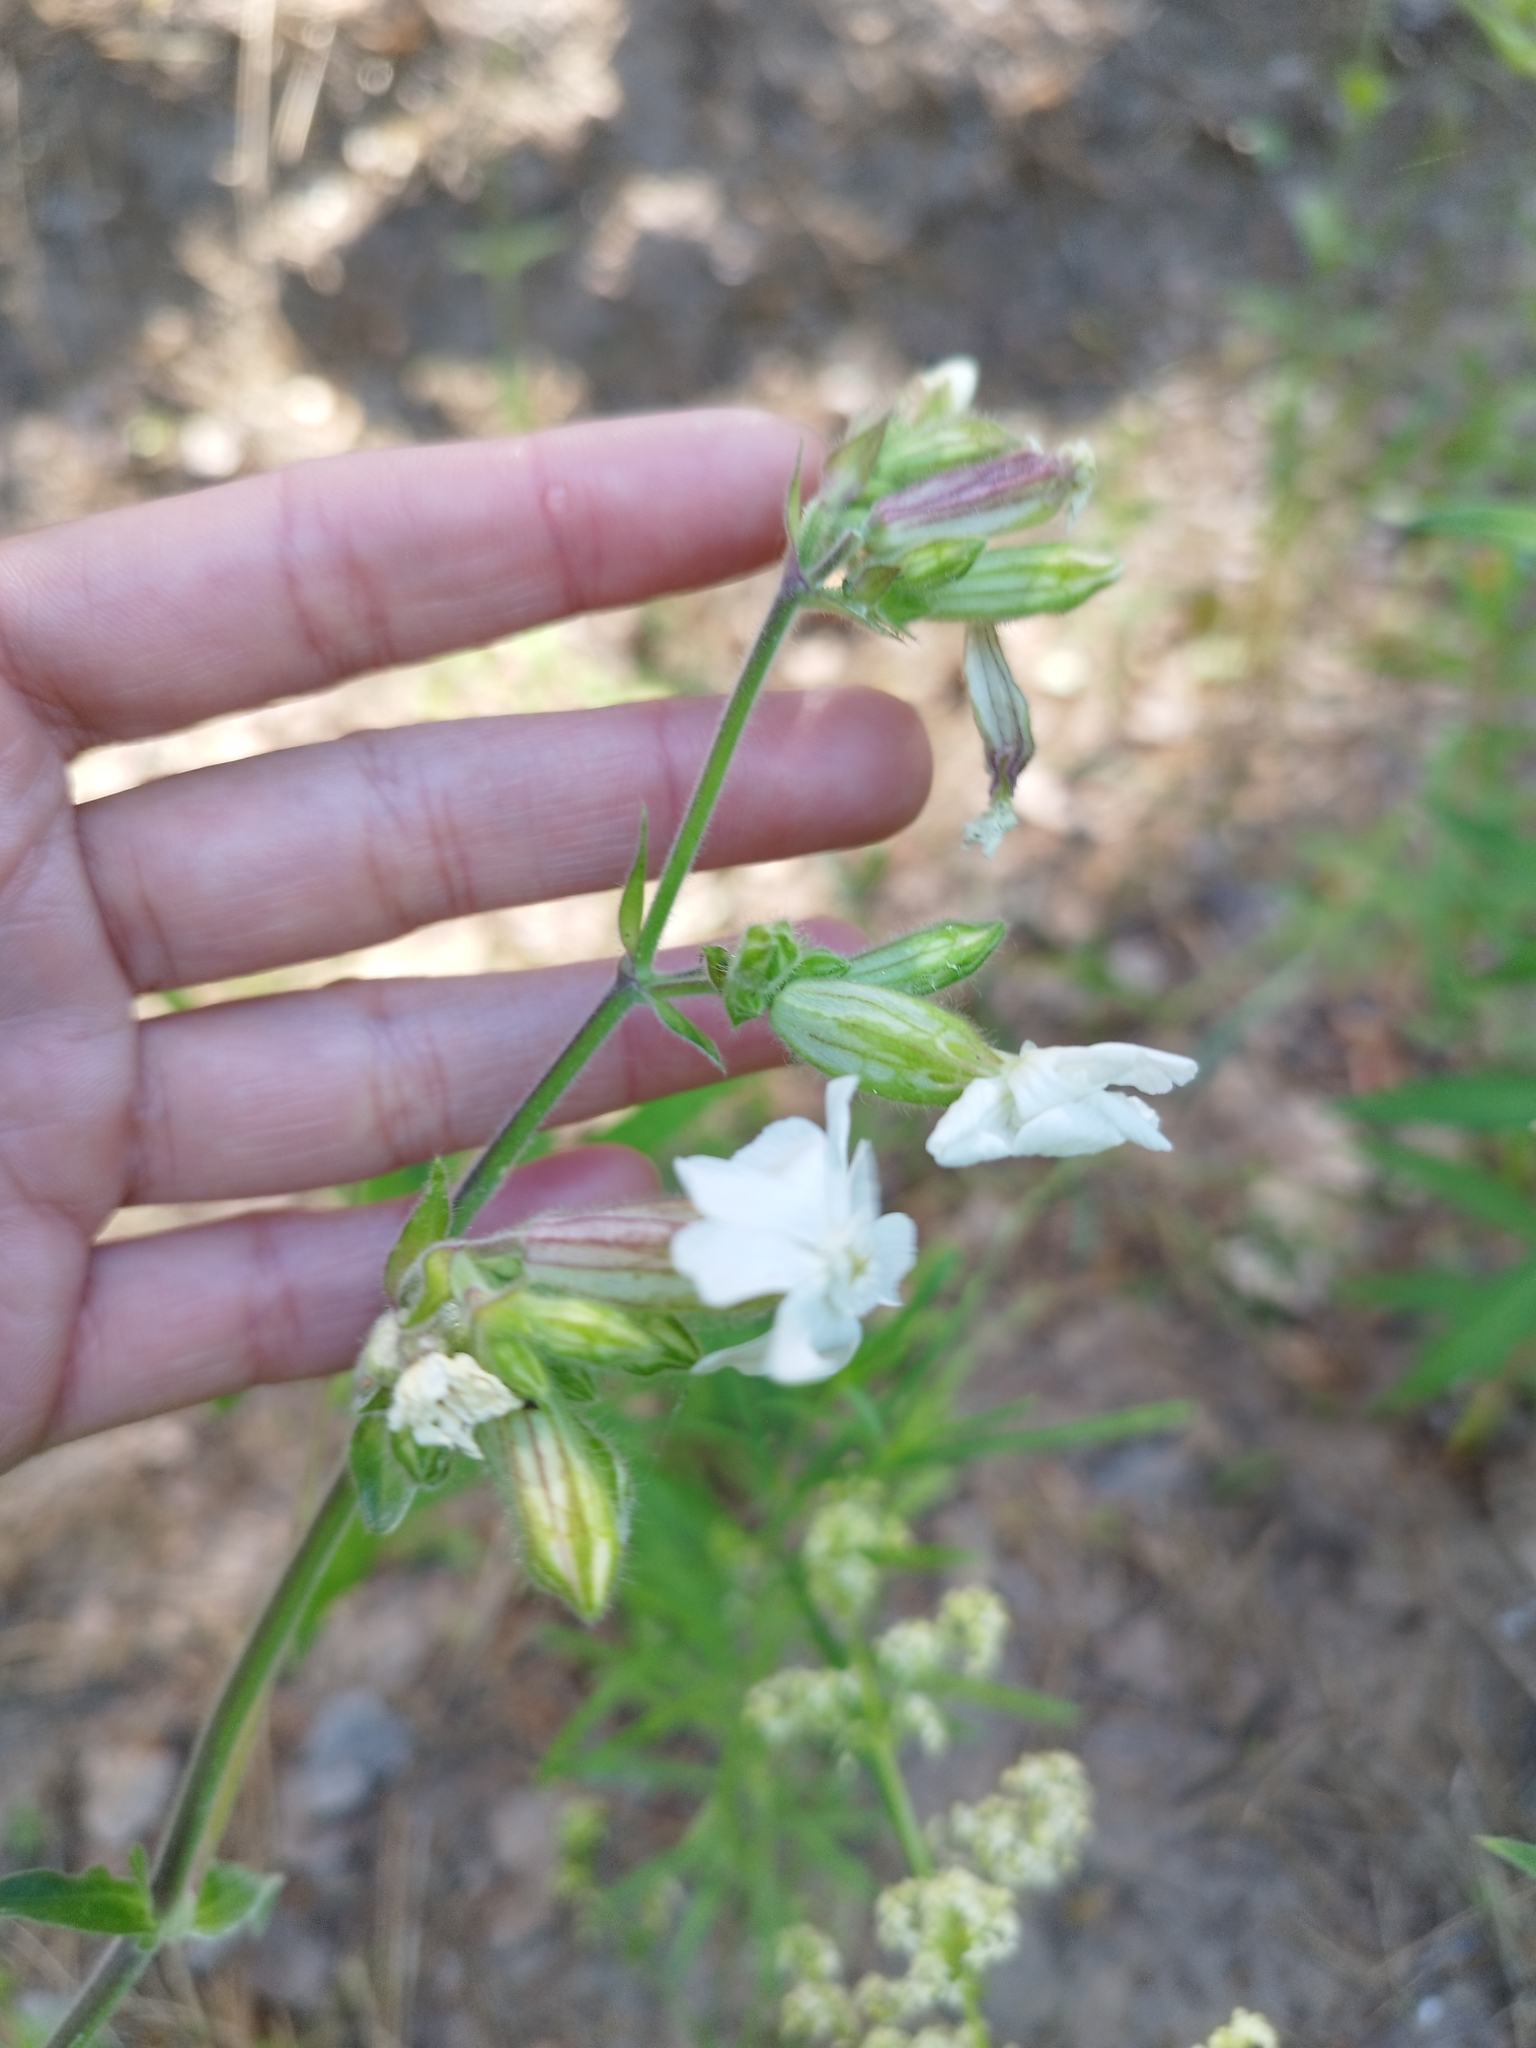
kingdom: Plantae
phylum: Tracheophyta
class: Magnoliopsida
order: Caryophyllales
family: Caryophyllaceae
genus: Silene
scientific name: Silene latifolia
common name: White campion
